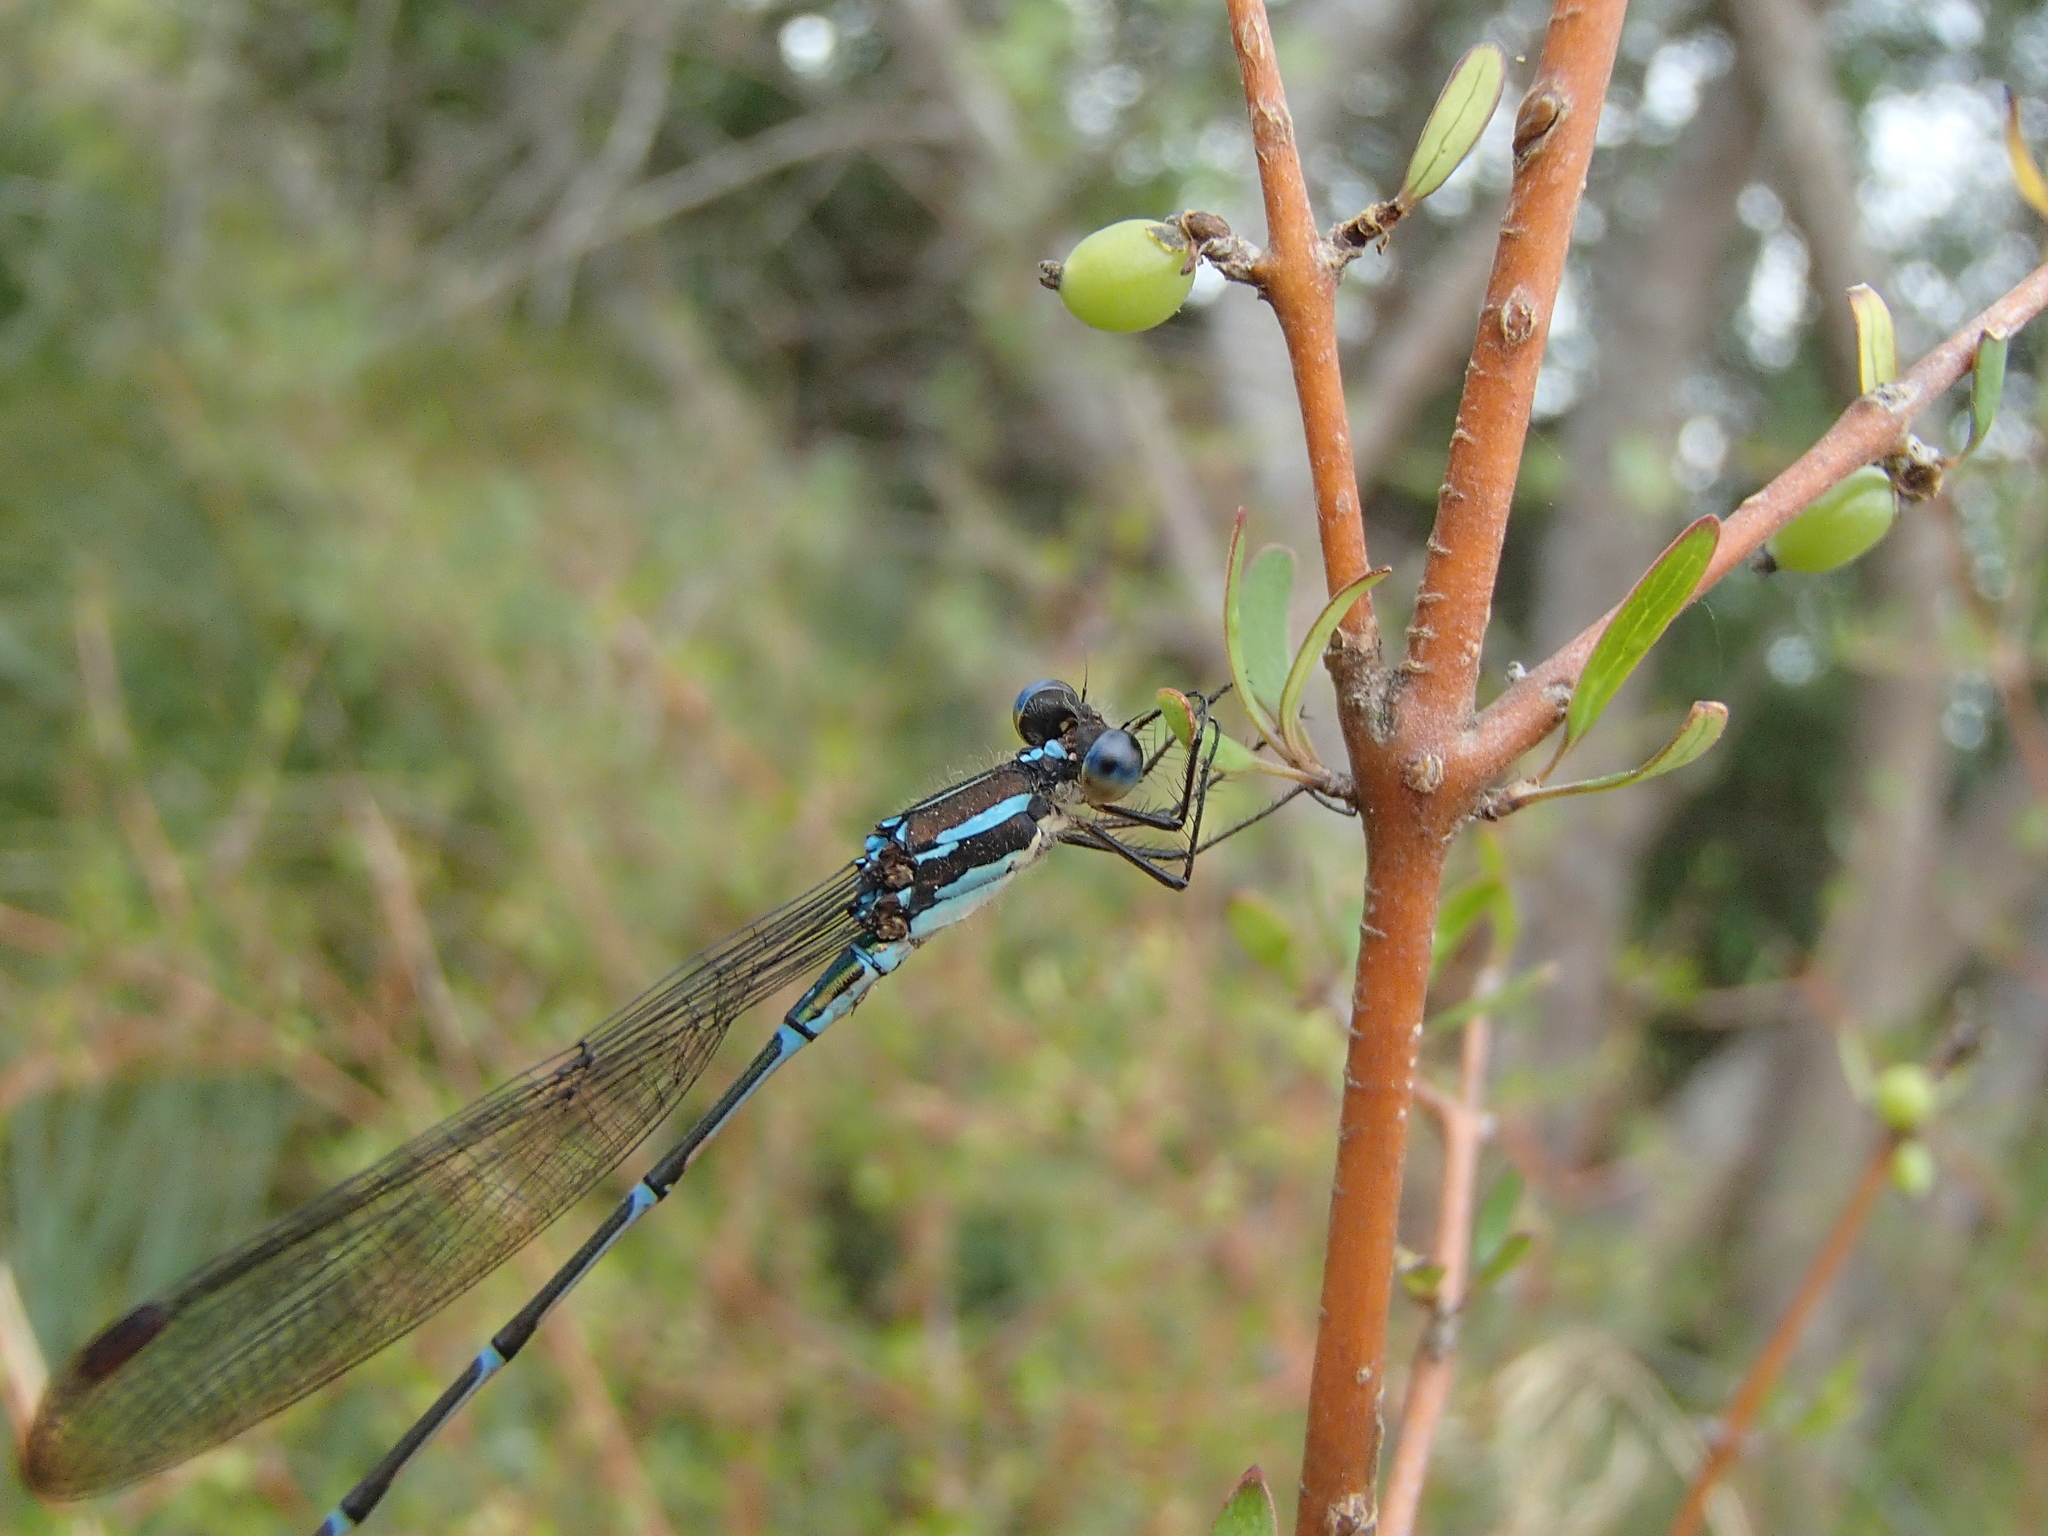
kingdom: Animalia
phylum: Arthropoda
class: Insecta
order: Odonata
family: Lestidae
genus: Austrolestes
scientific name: Austrolestes colensonis
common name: Blue damselfly
